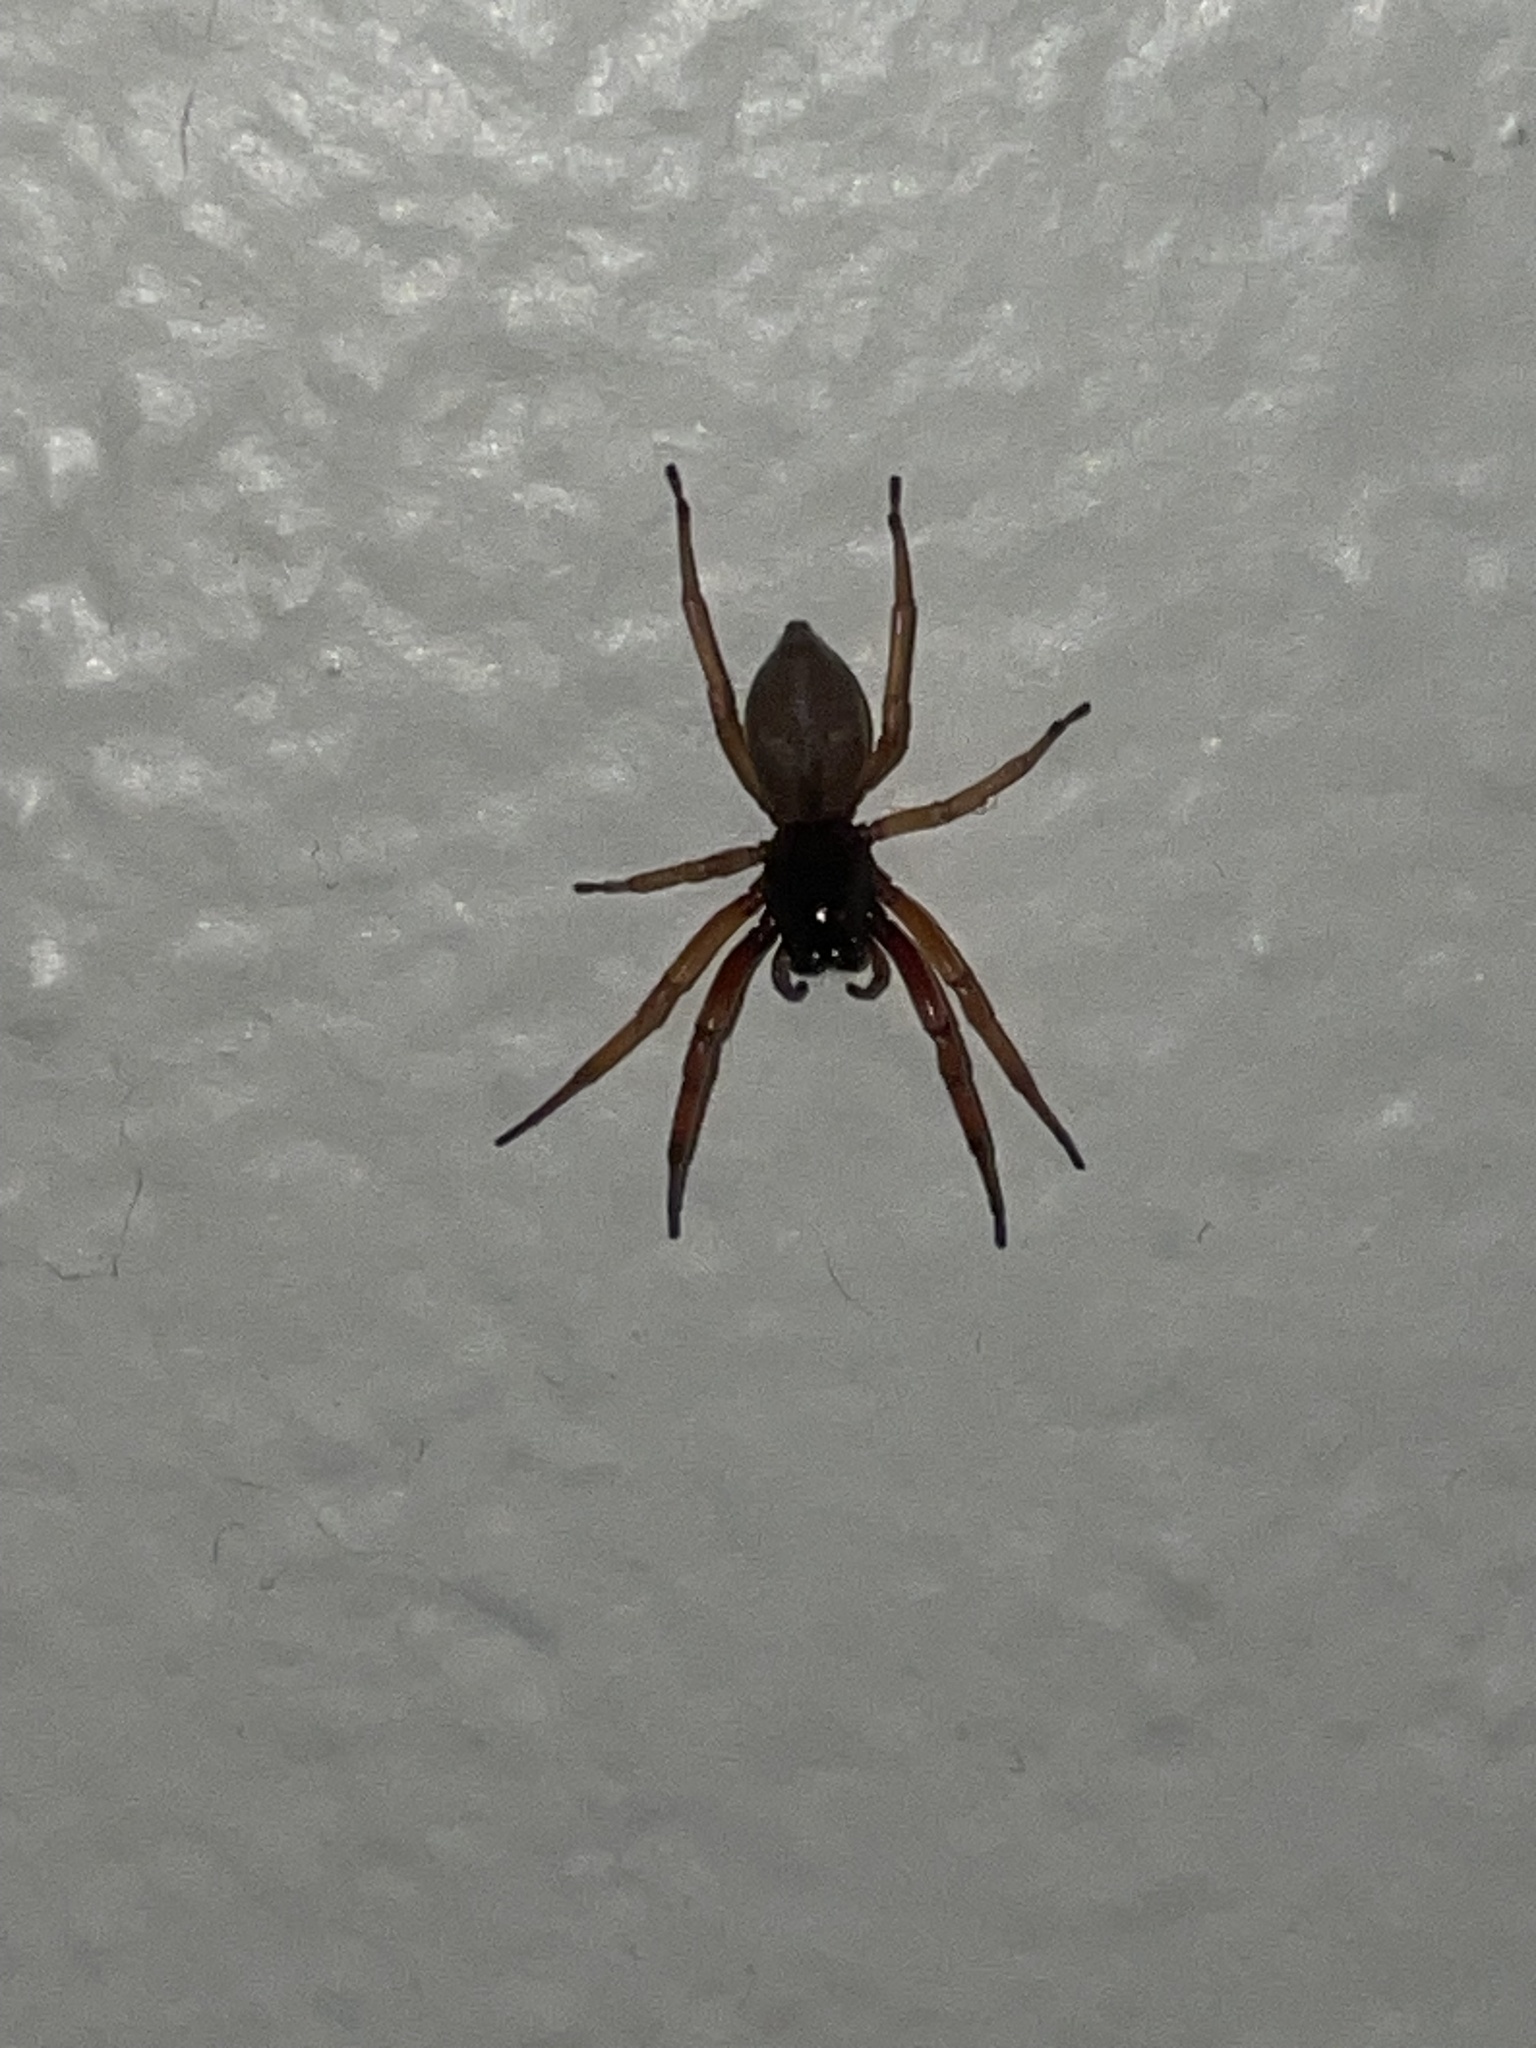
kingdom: Animalia
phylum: Arthropoda
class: Arachnida
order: Araneae
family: Trachelidae
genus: Trachelas
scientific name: Trachelas tranquillus
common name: Broad-faced sac spider
